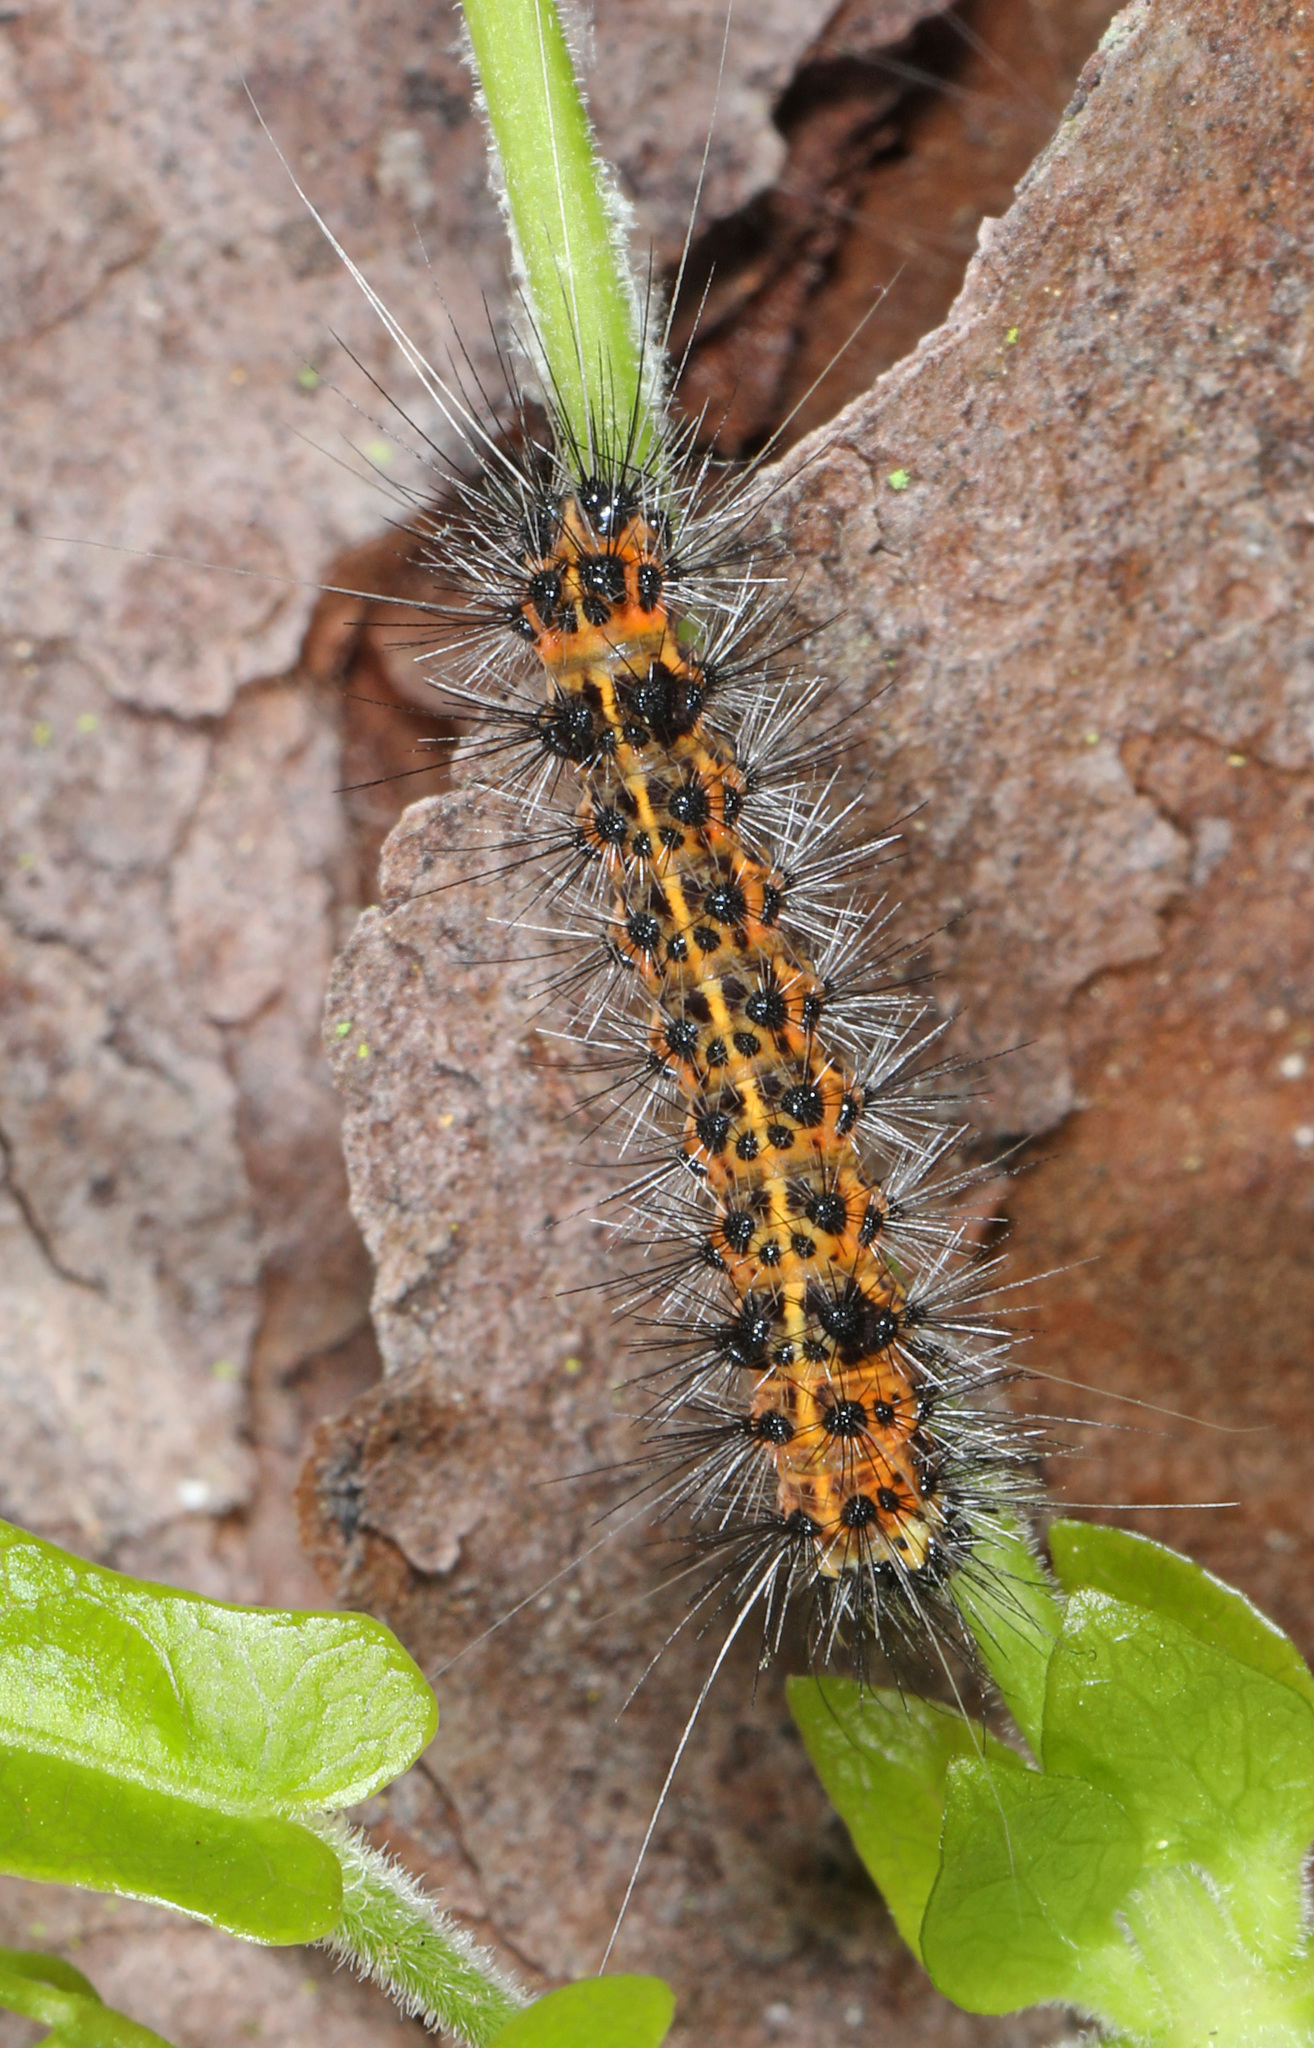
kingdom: Animalia
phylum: Arthropoda
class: Insecta
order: Lepidoptera
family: Erebidae
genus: Spilosoma
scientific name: Spilosoma dubia
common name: Dubious tiger moth
